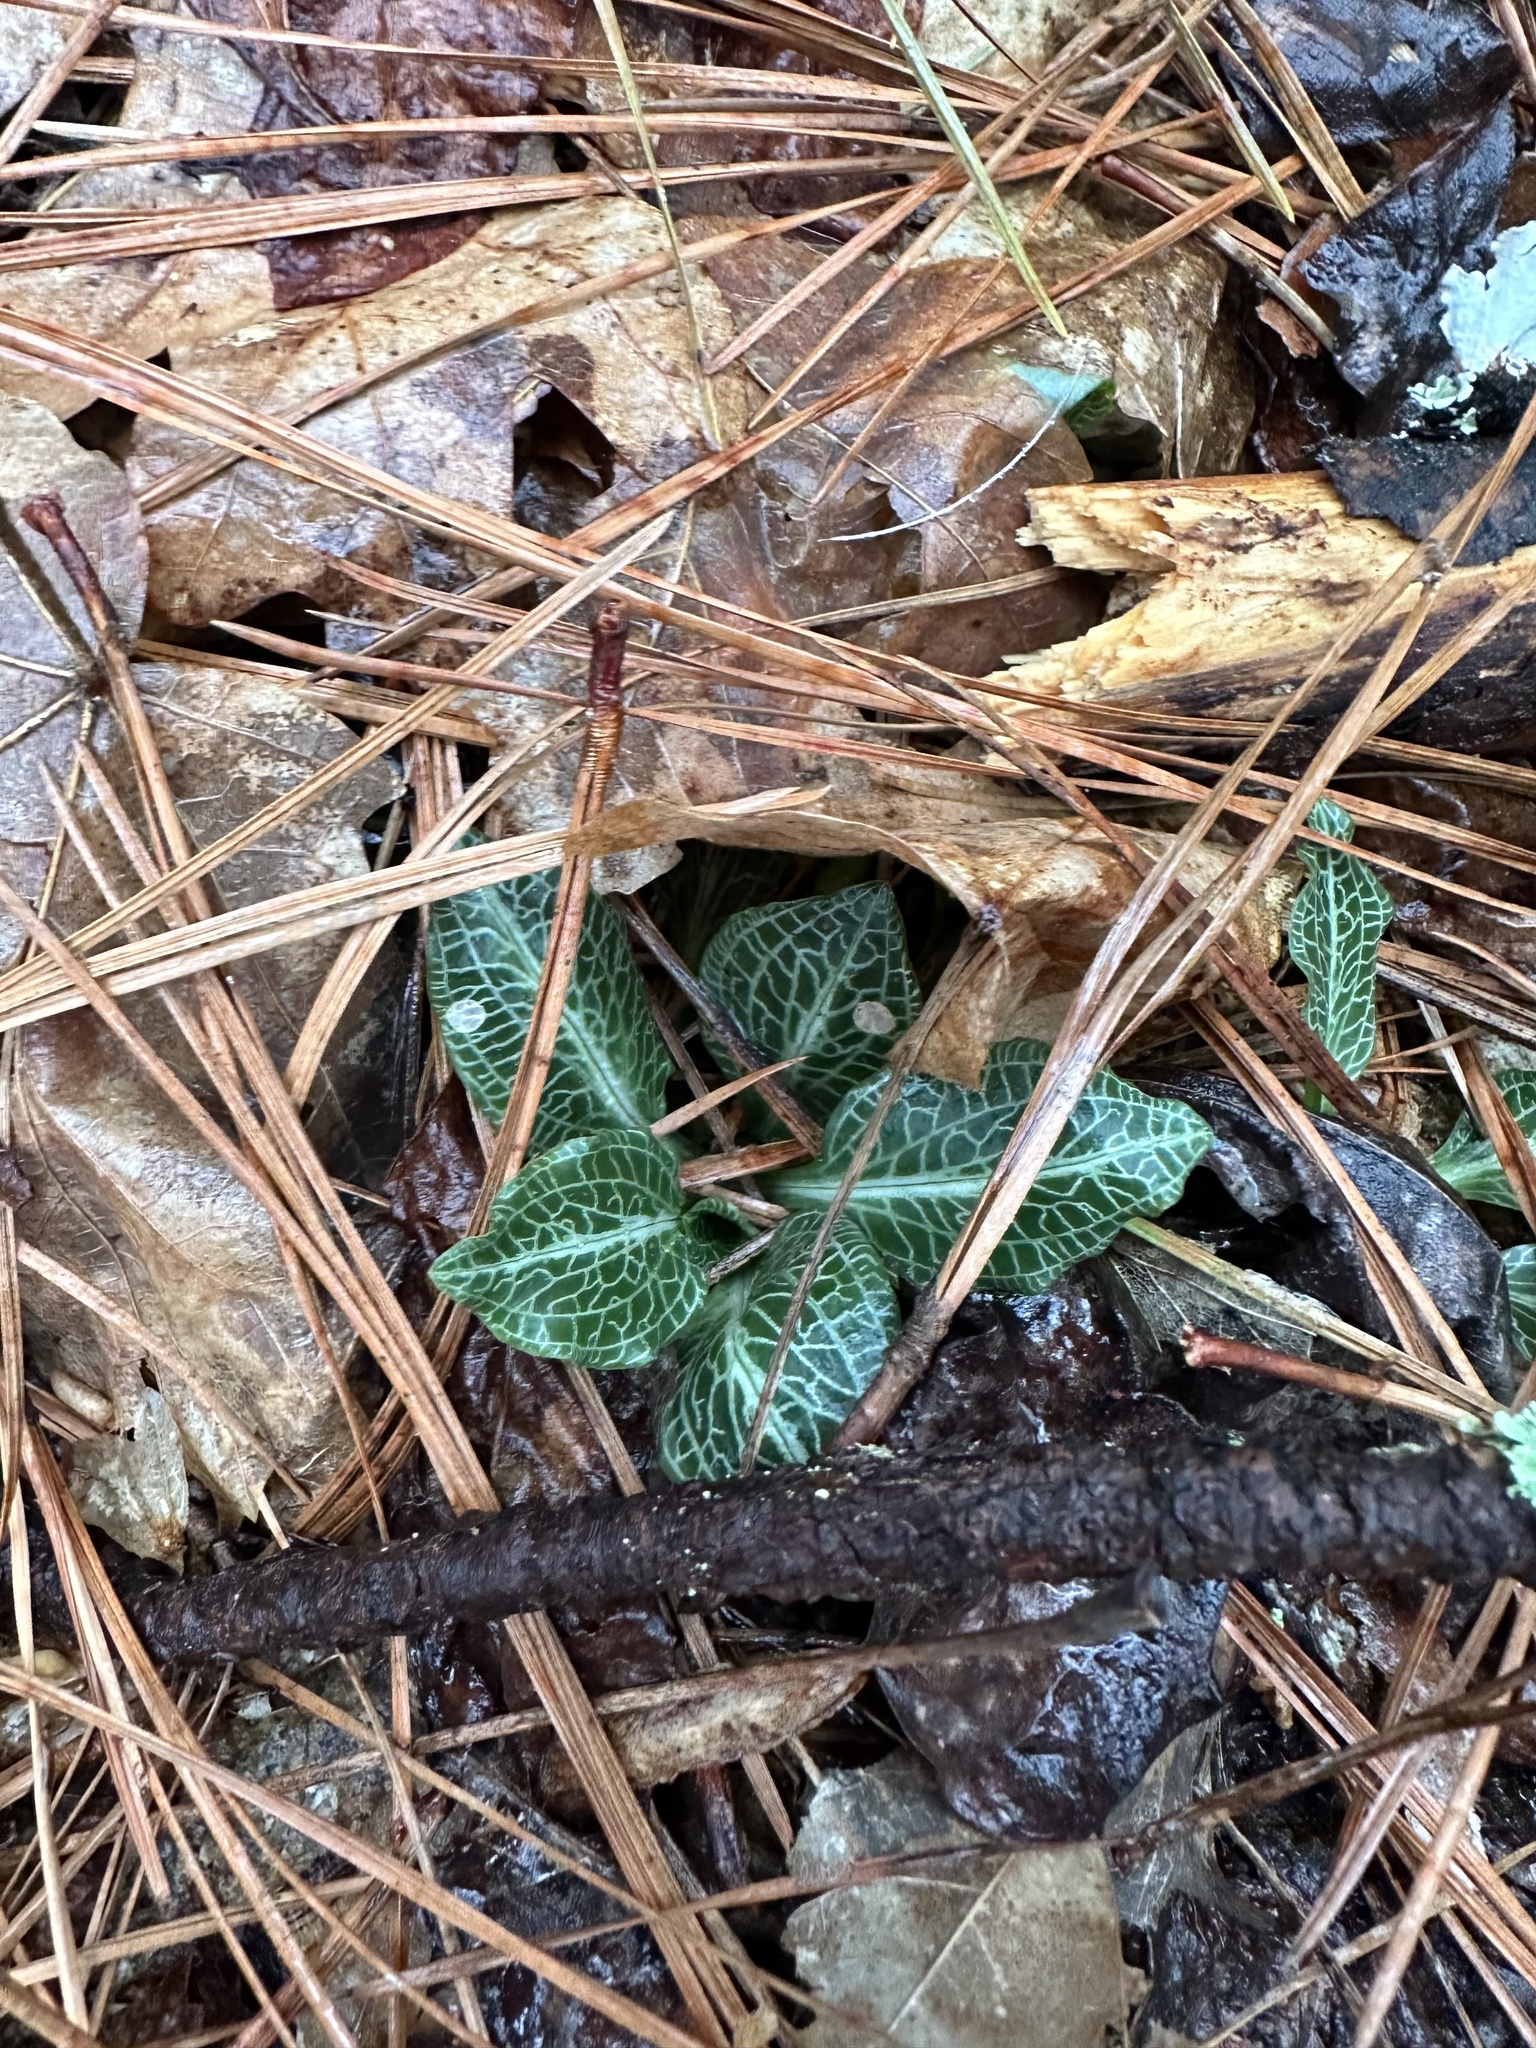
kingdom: Plantae
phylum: Tracheophyta
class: Liliopsida
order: Asparagales
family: Orchidaceae
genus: Goodyera
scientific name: Goodyera pubescens
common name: Downy rattlesnake-plantain
